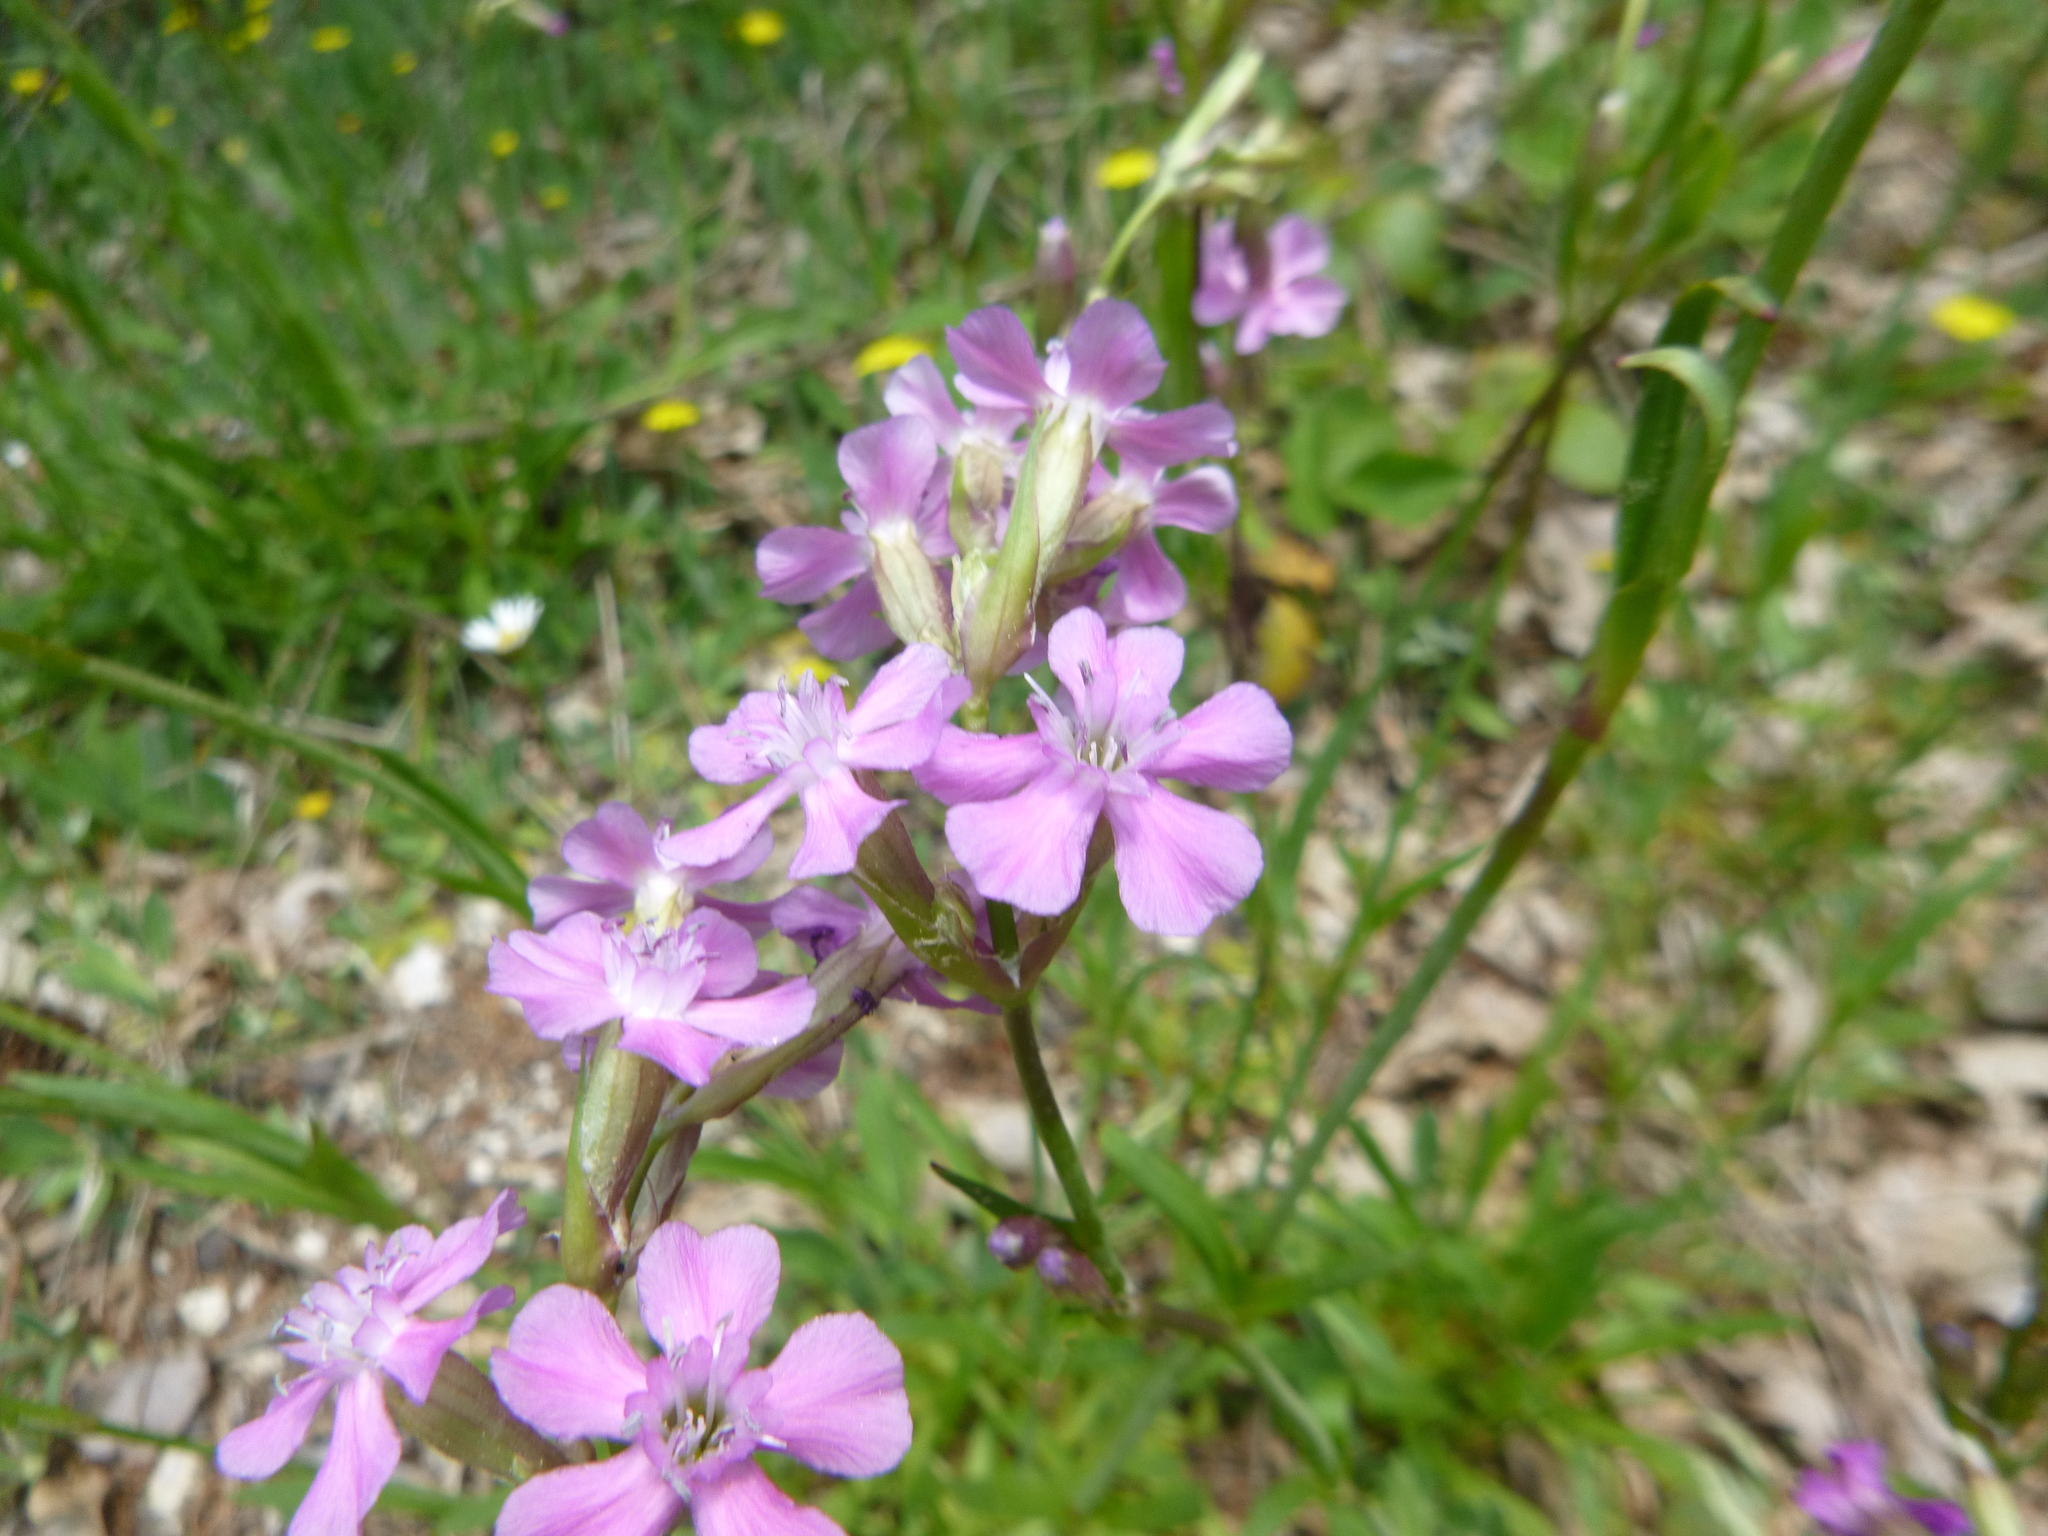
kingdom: Plantae
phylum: Tracheophyta
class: Magnoliopsida
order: Caryophyllales
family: Caryophyllaceae
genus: Viscaria
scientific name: Viscaria vulgaris
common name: Clammy campion
